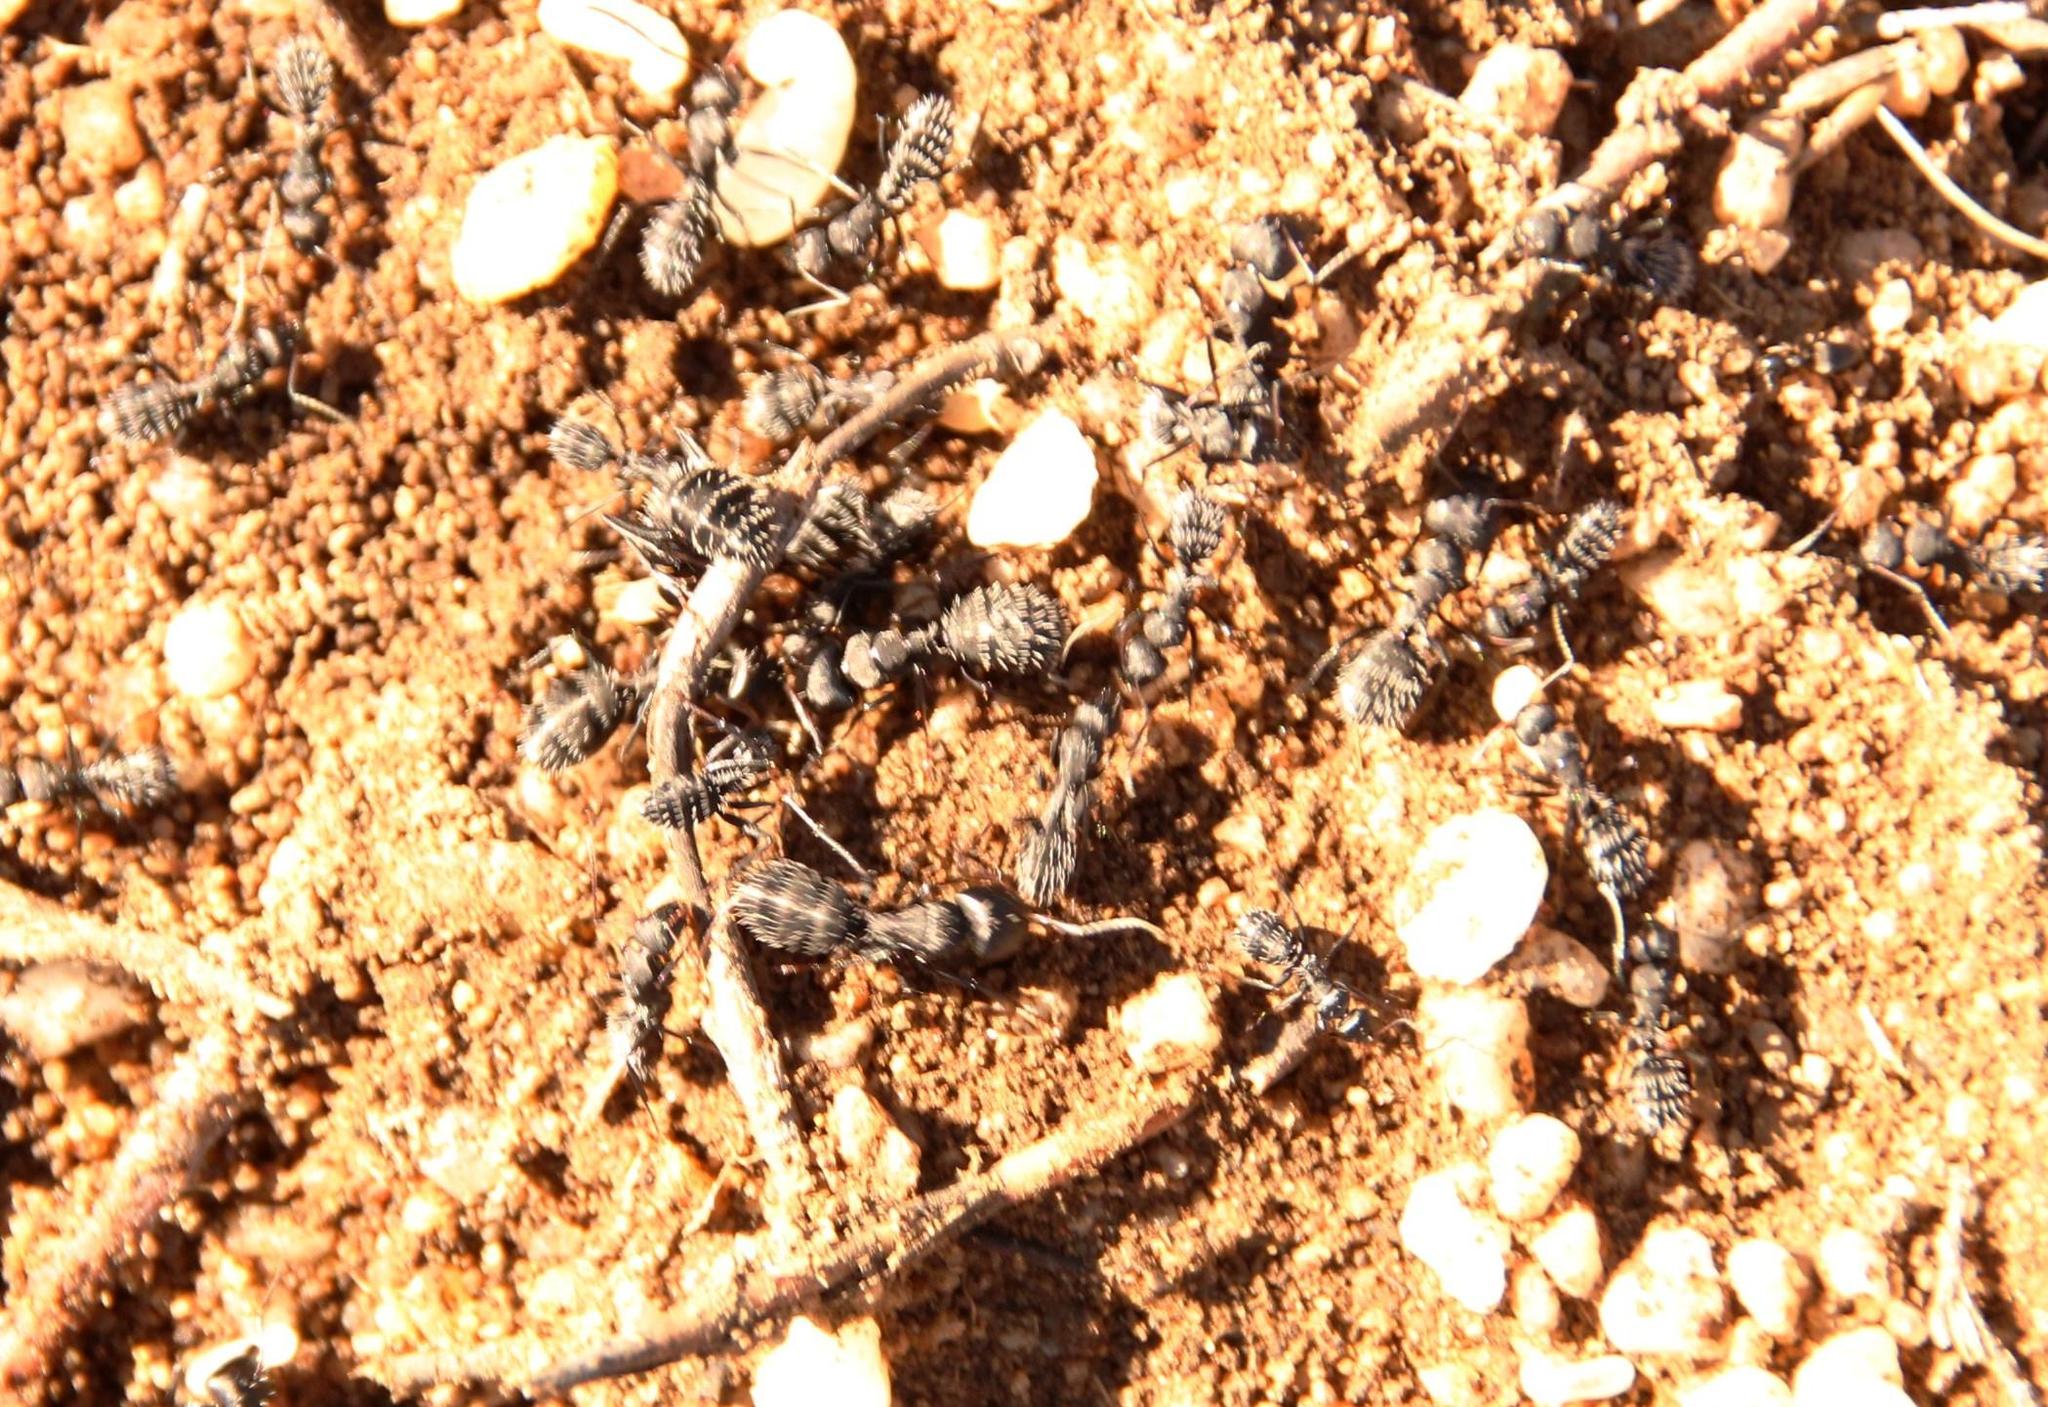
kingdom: Animalia
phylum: Arthropoda
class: Insecta
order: Hymenoptera
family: Formicidae
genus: Camponotus
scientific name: Camponotus niveosetosus
